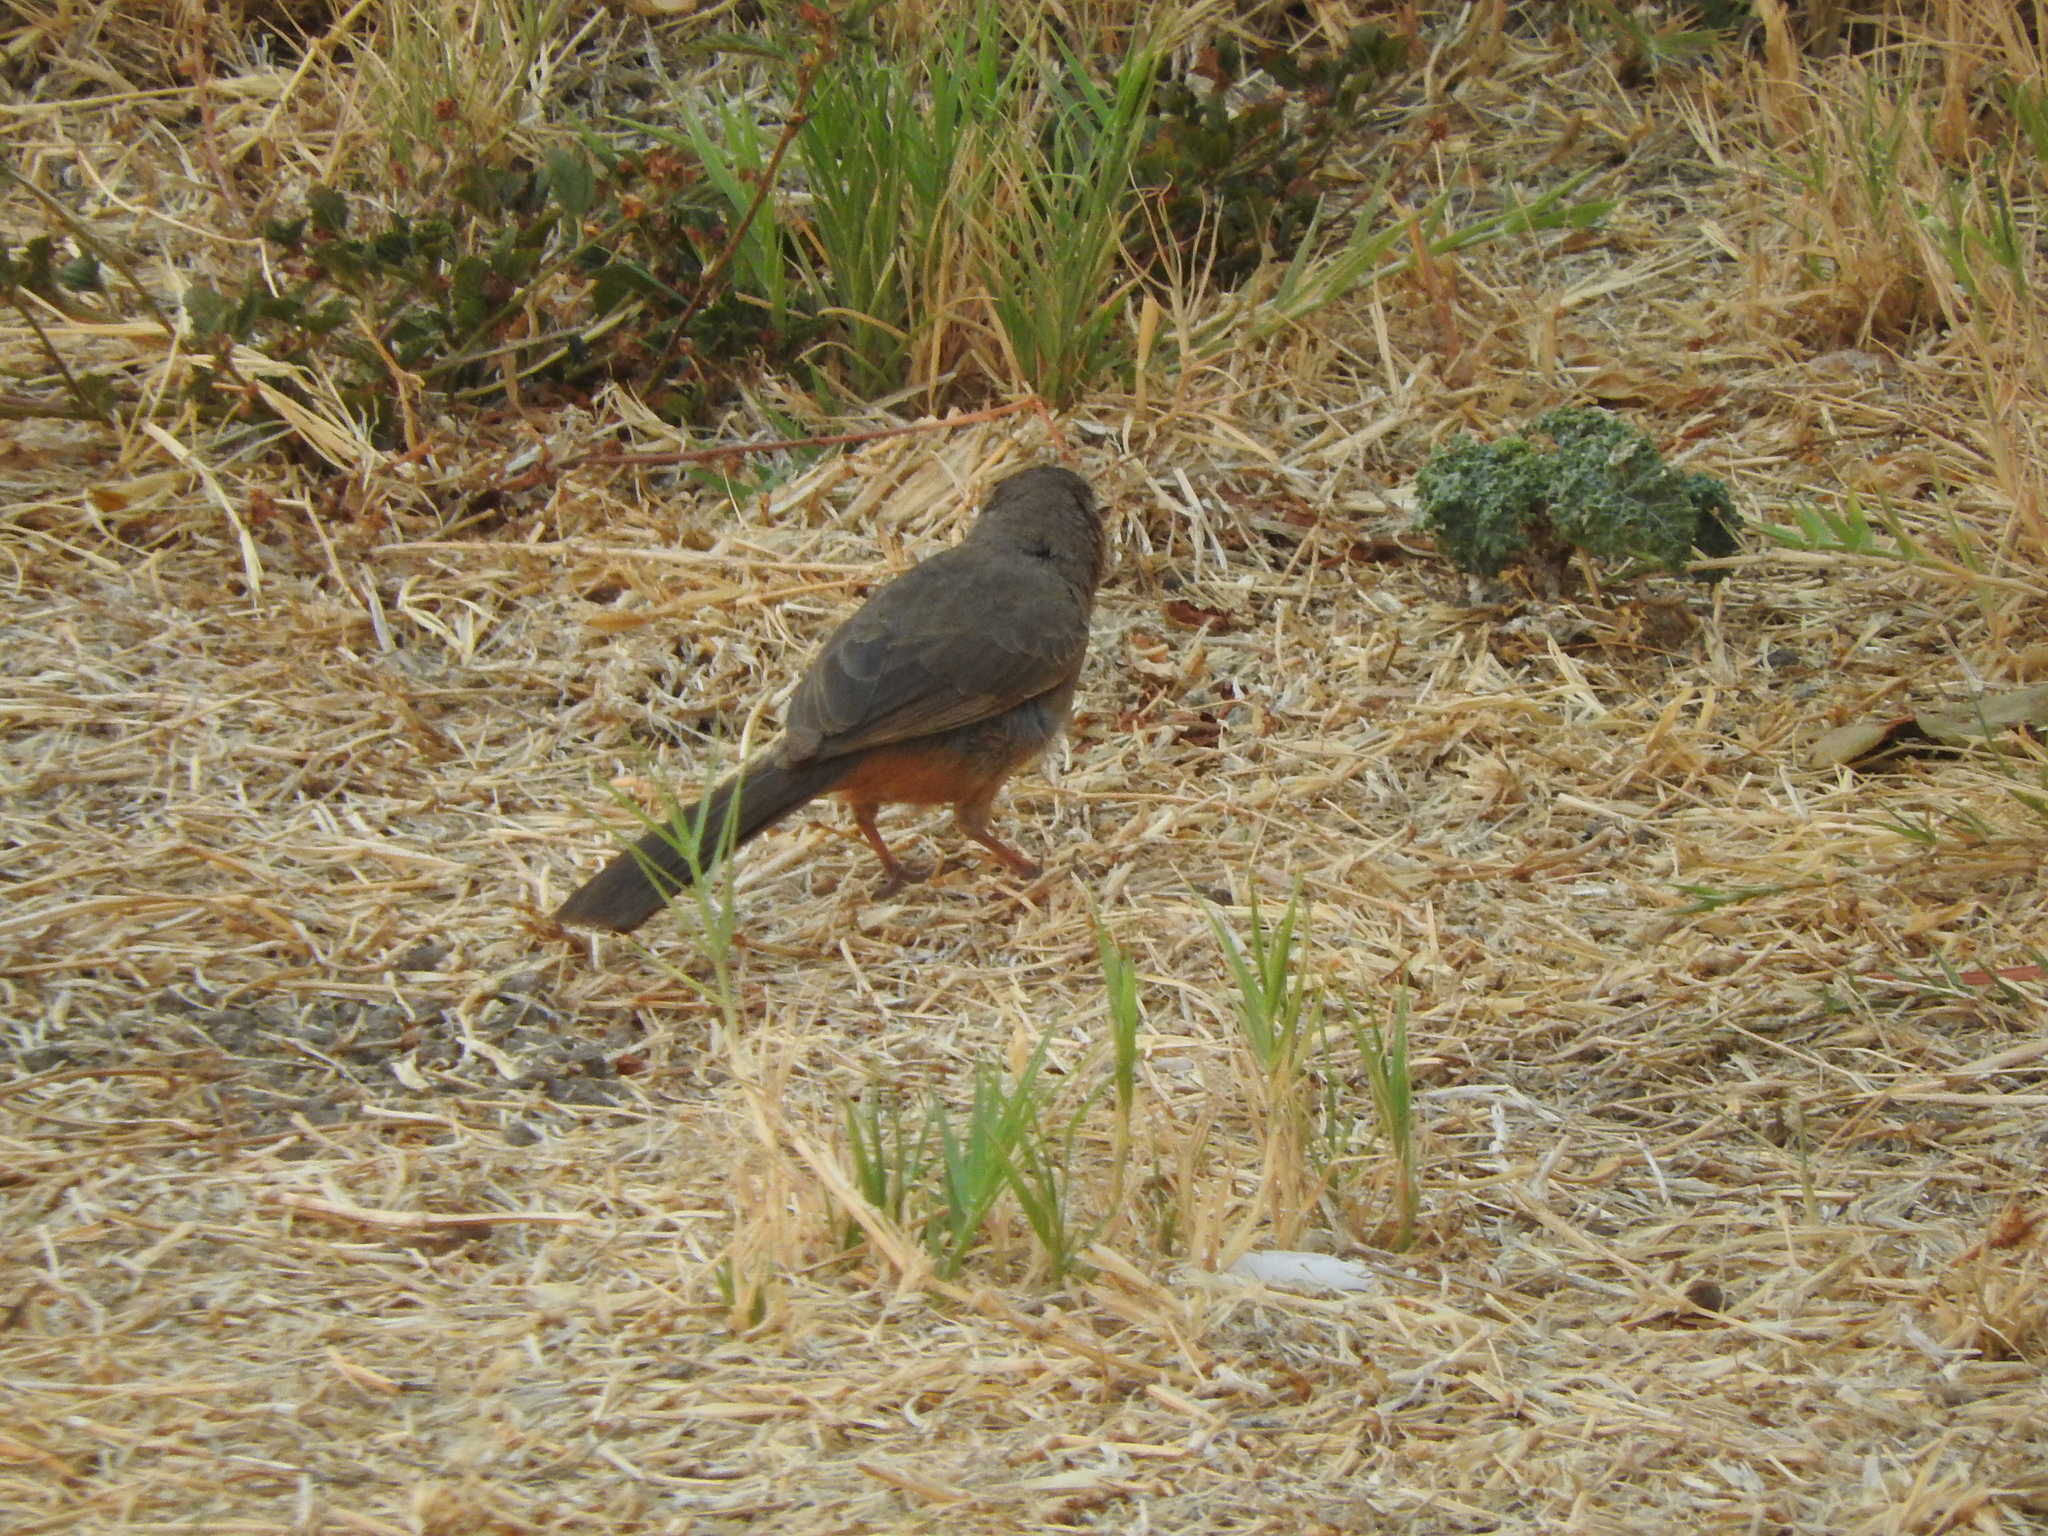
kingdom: Animalia
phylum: Chordata
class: Aves
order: Passeriformes
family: Passerellidae
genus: Melozone
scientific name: Melozone fusca
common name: Canyon towhee
